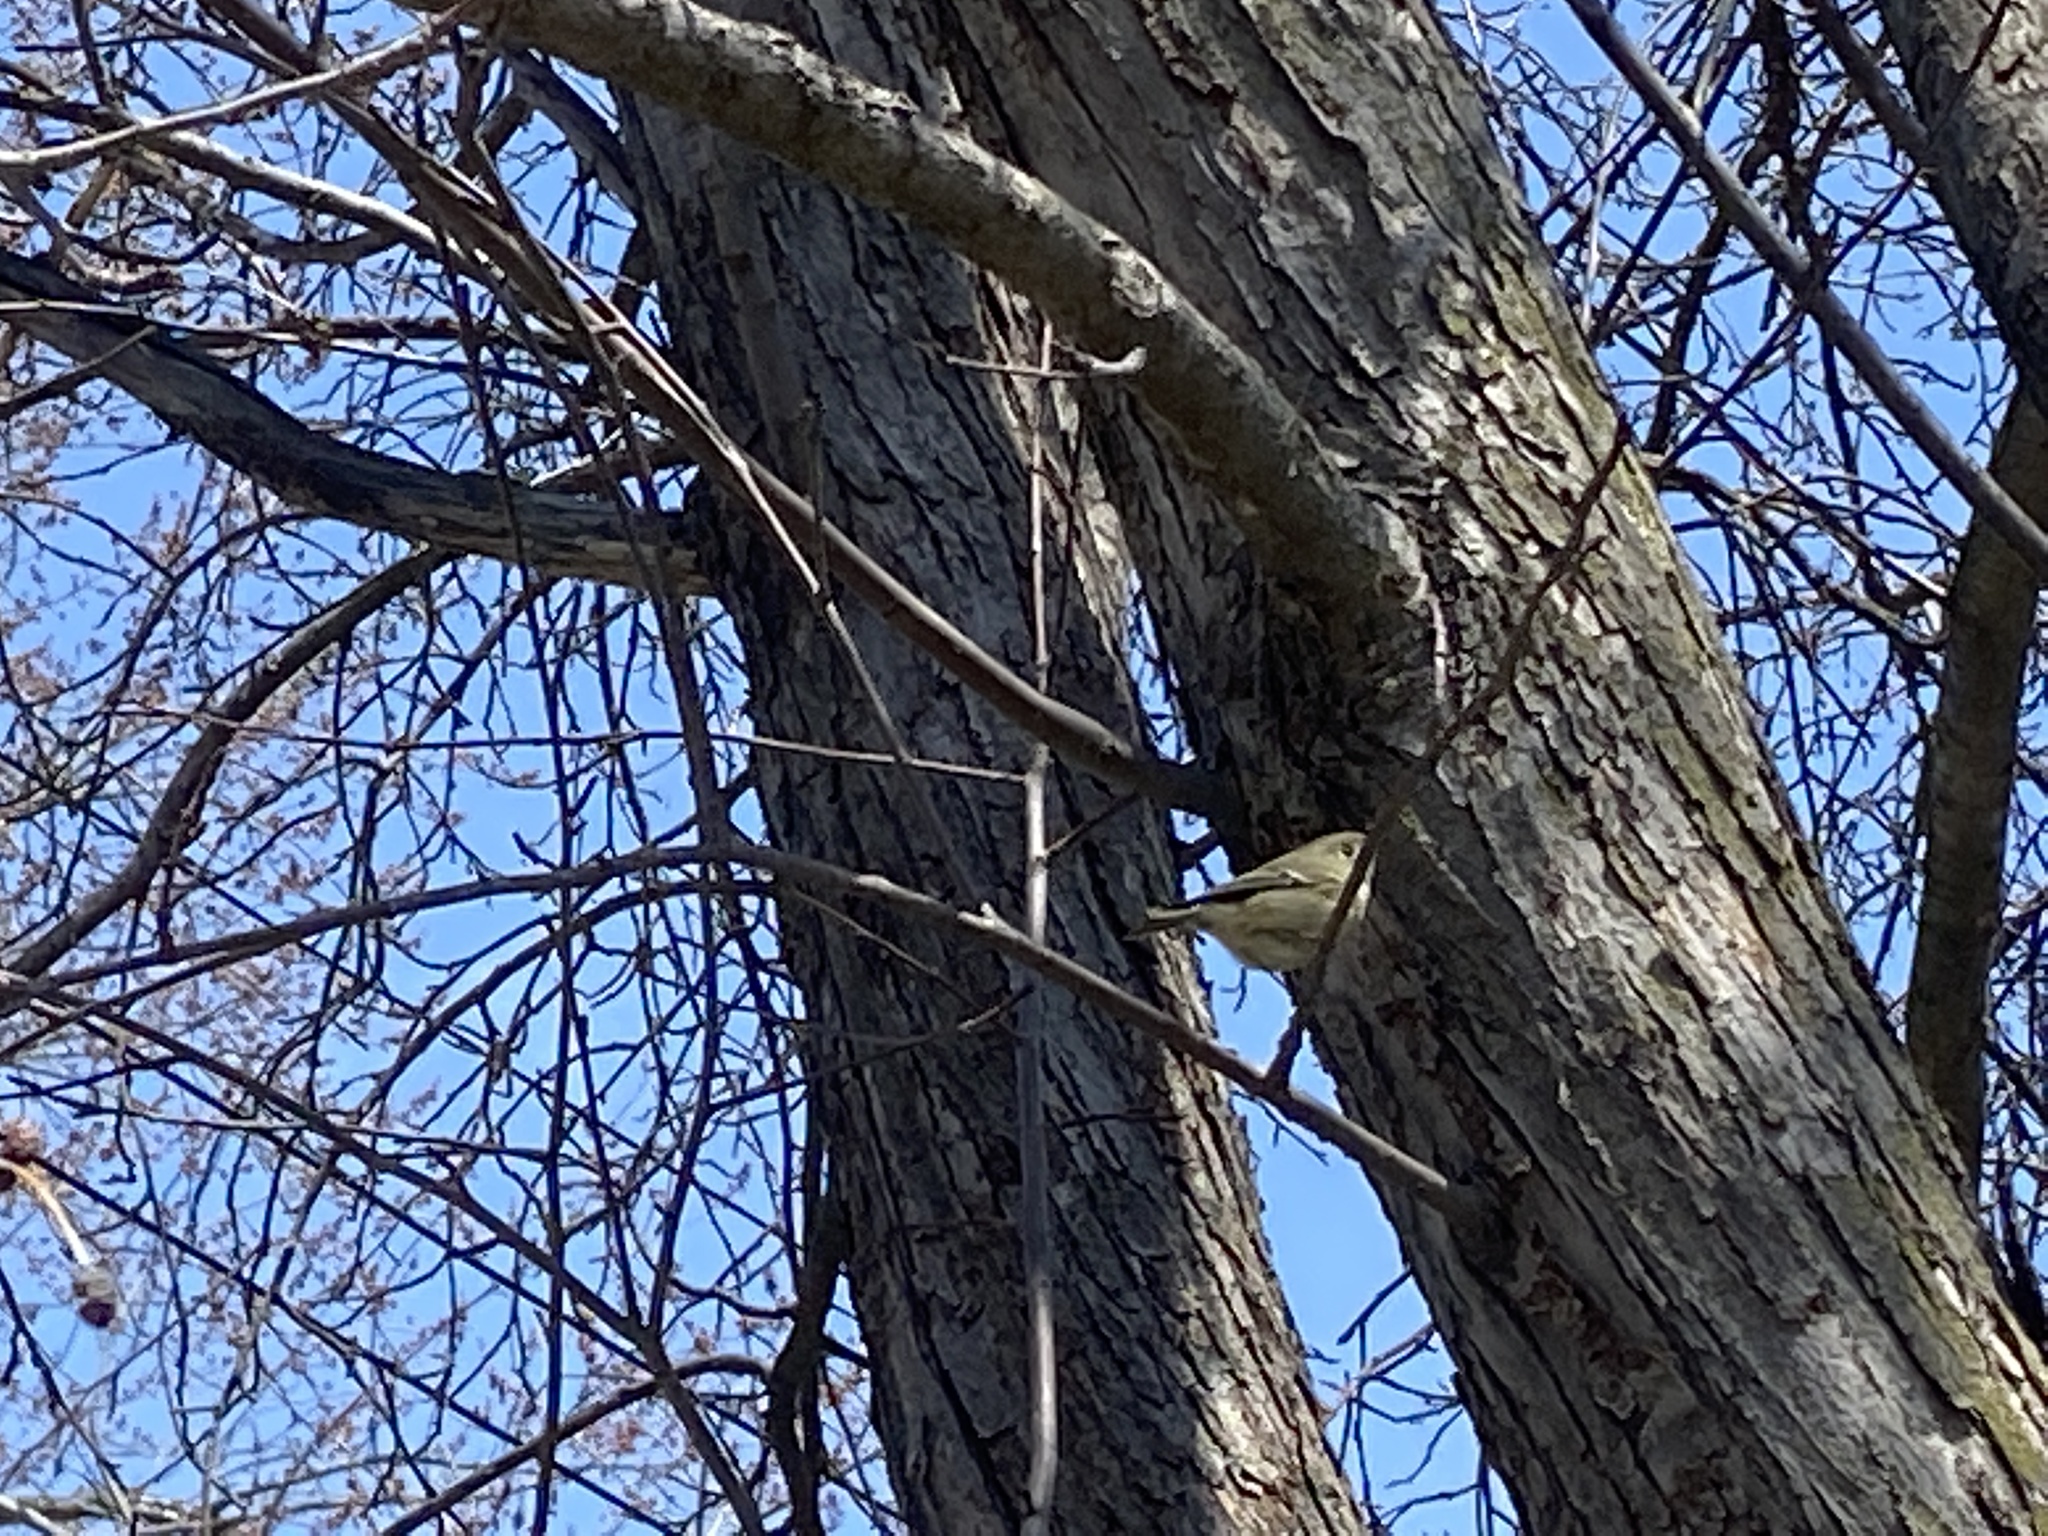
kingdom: Animalia
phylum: Chordata
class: Aves
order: Passeriformes
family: Regulidae
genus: Regulus
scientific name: Regulus calendula
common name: Ruby-crowned kinglet
